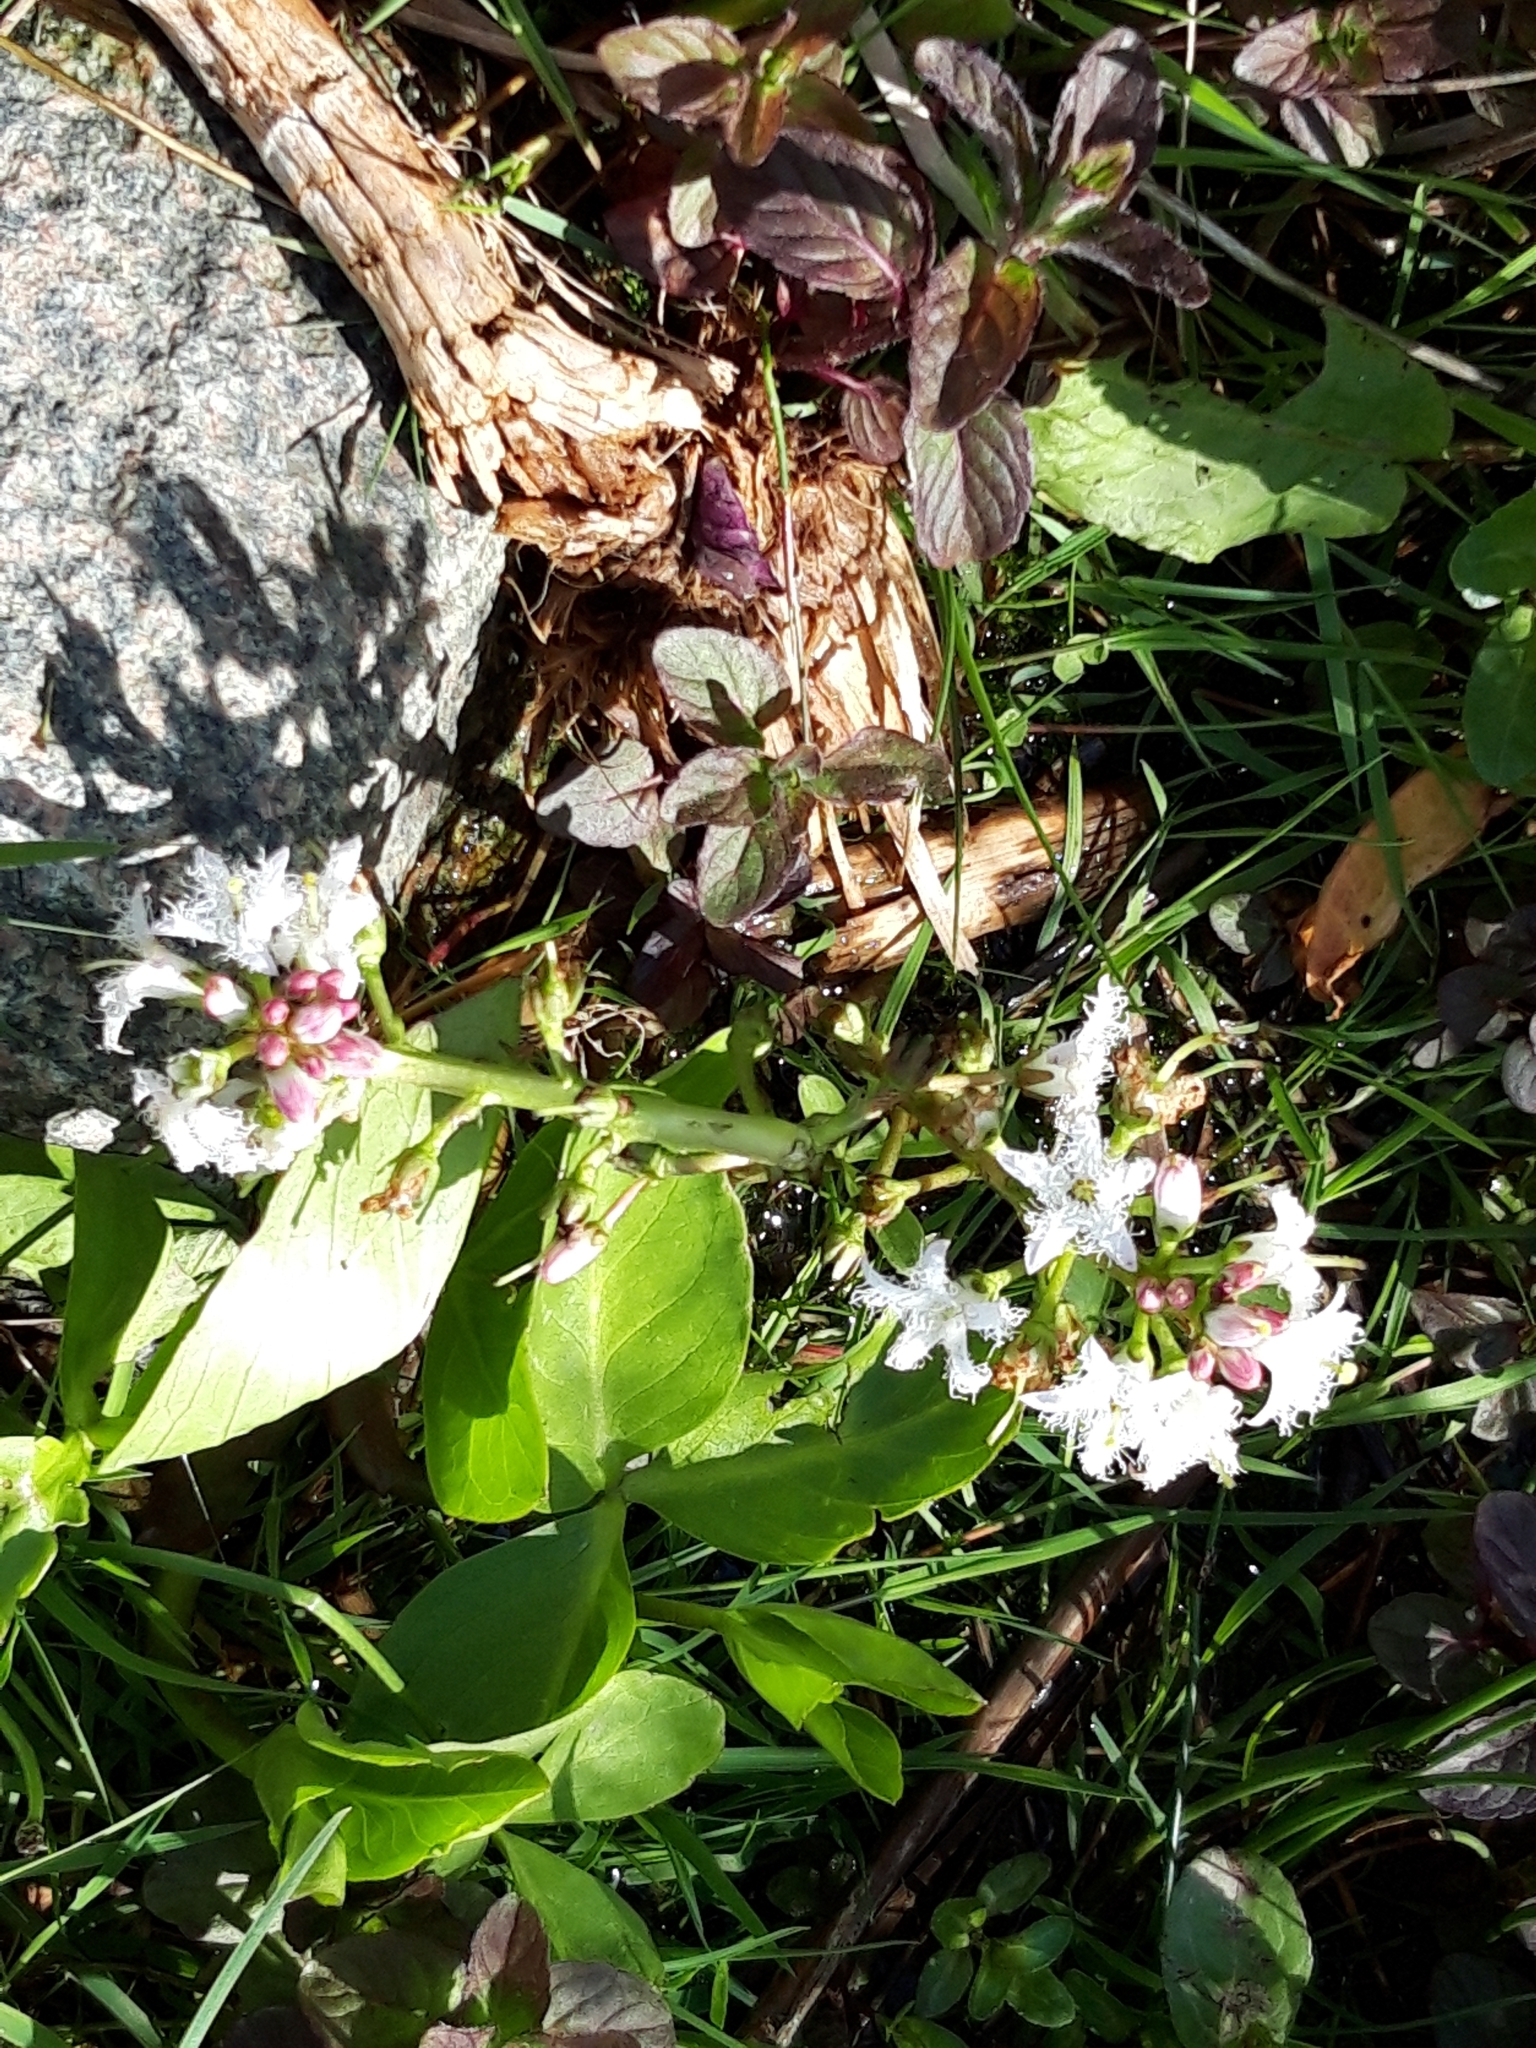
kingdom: Plantae
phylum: Tracheophyta
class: Magnoliopsida
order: Asterales
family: Menyanthaceae
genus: Menyanthes
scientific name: Menyanthes trifoliata
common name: Bogbean
